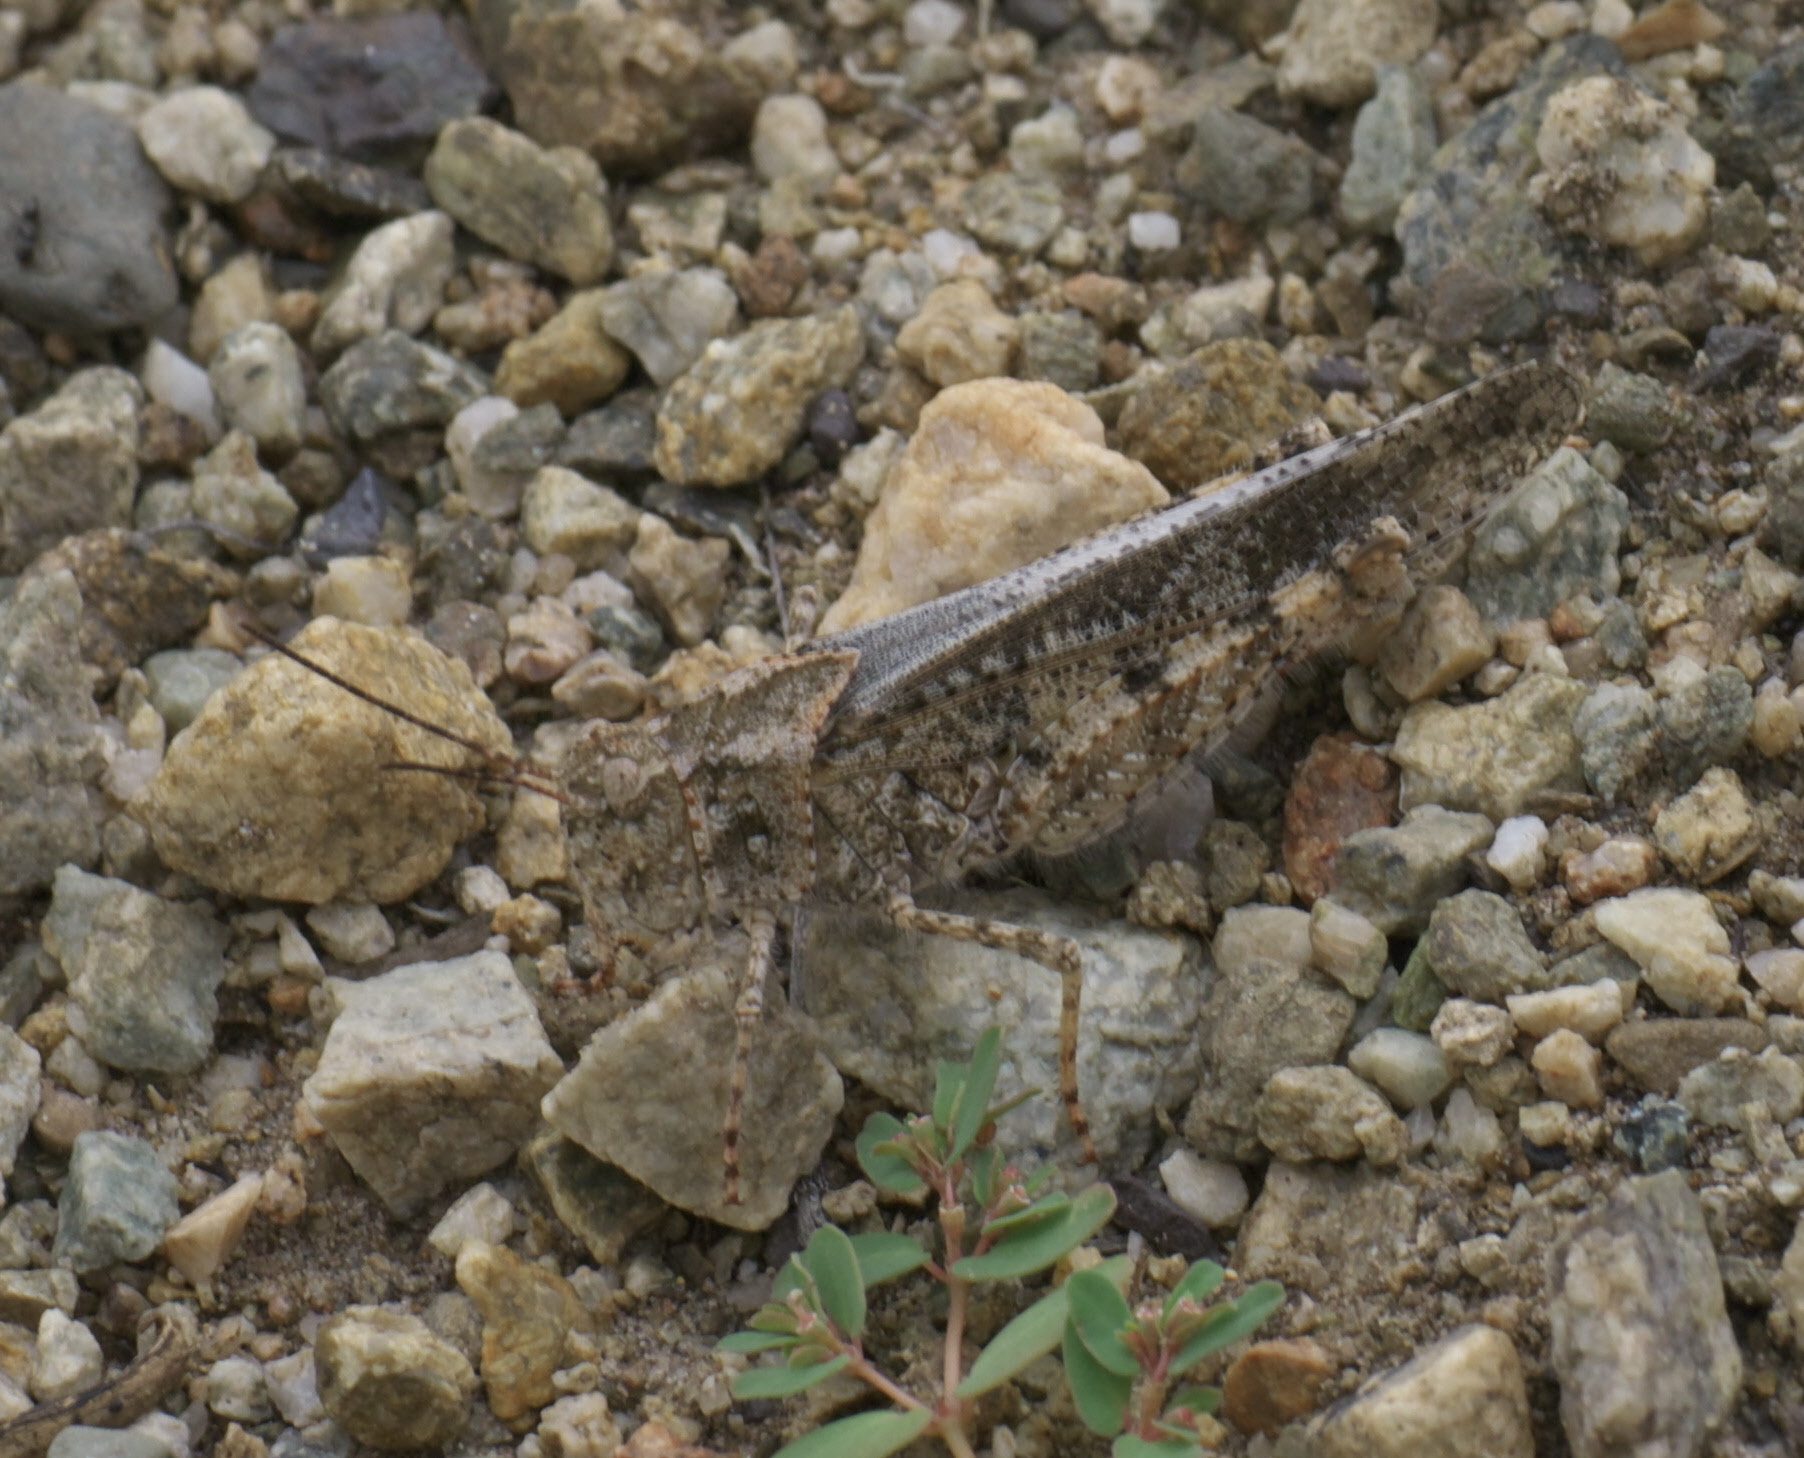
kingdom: Animalia
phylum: Arthropoda
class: Insecta
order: Orthoptera
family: Acrididae
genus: Spharagemon
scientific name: Spharagemon collare
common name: Mottled sand grasshopper
